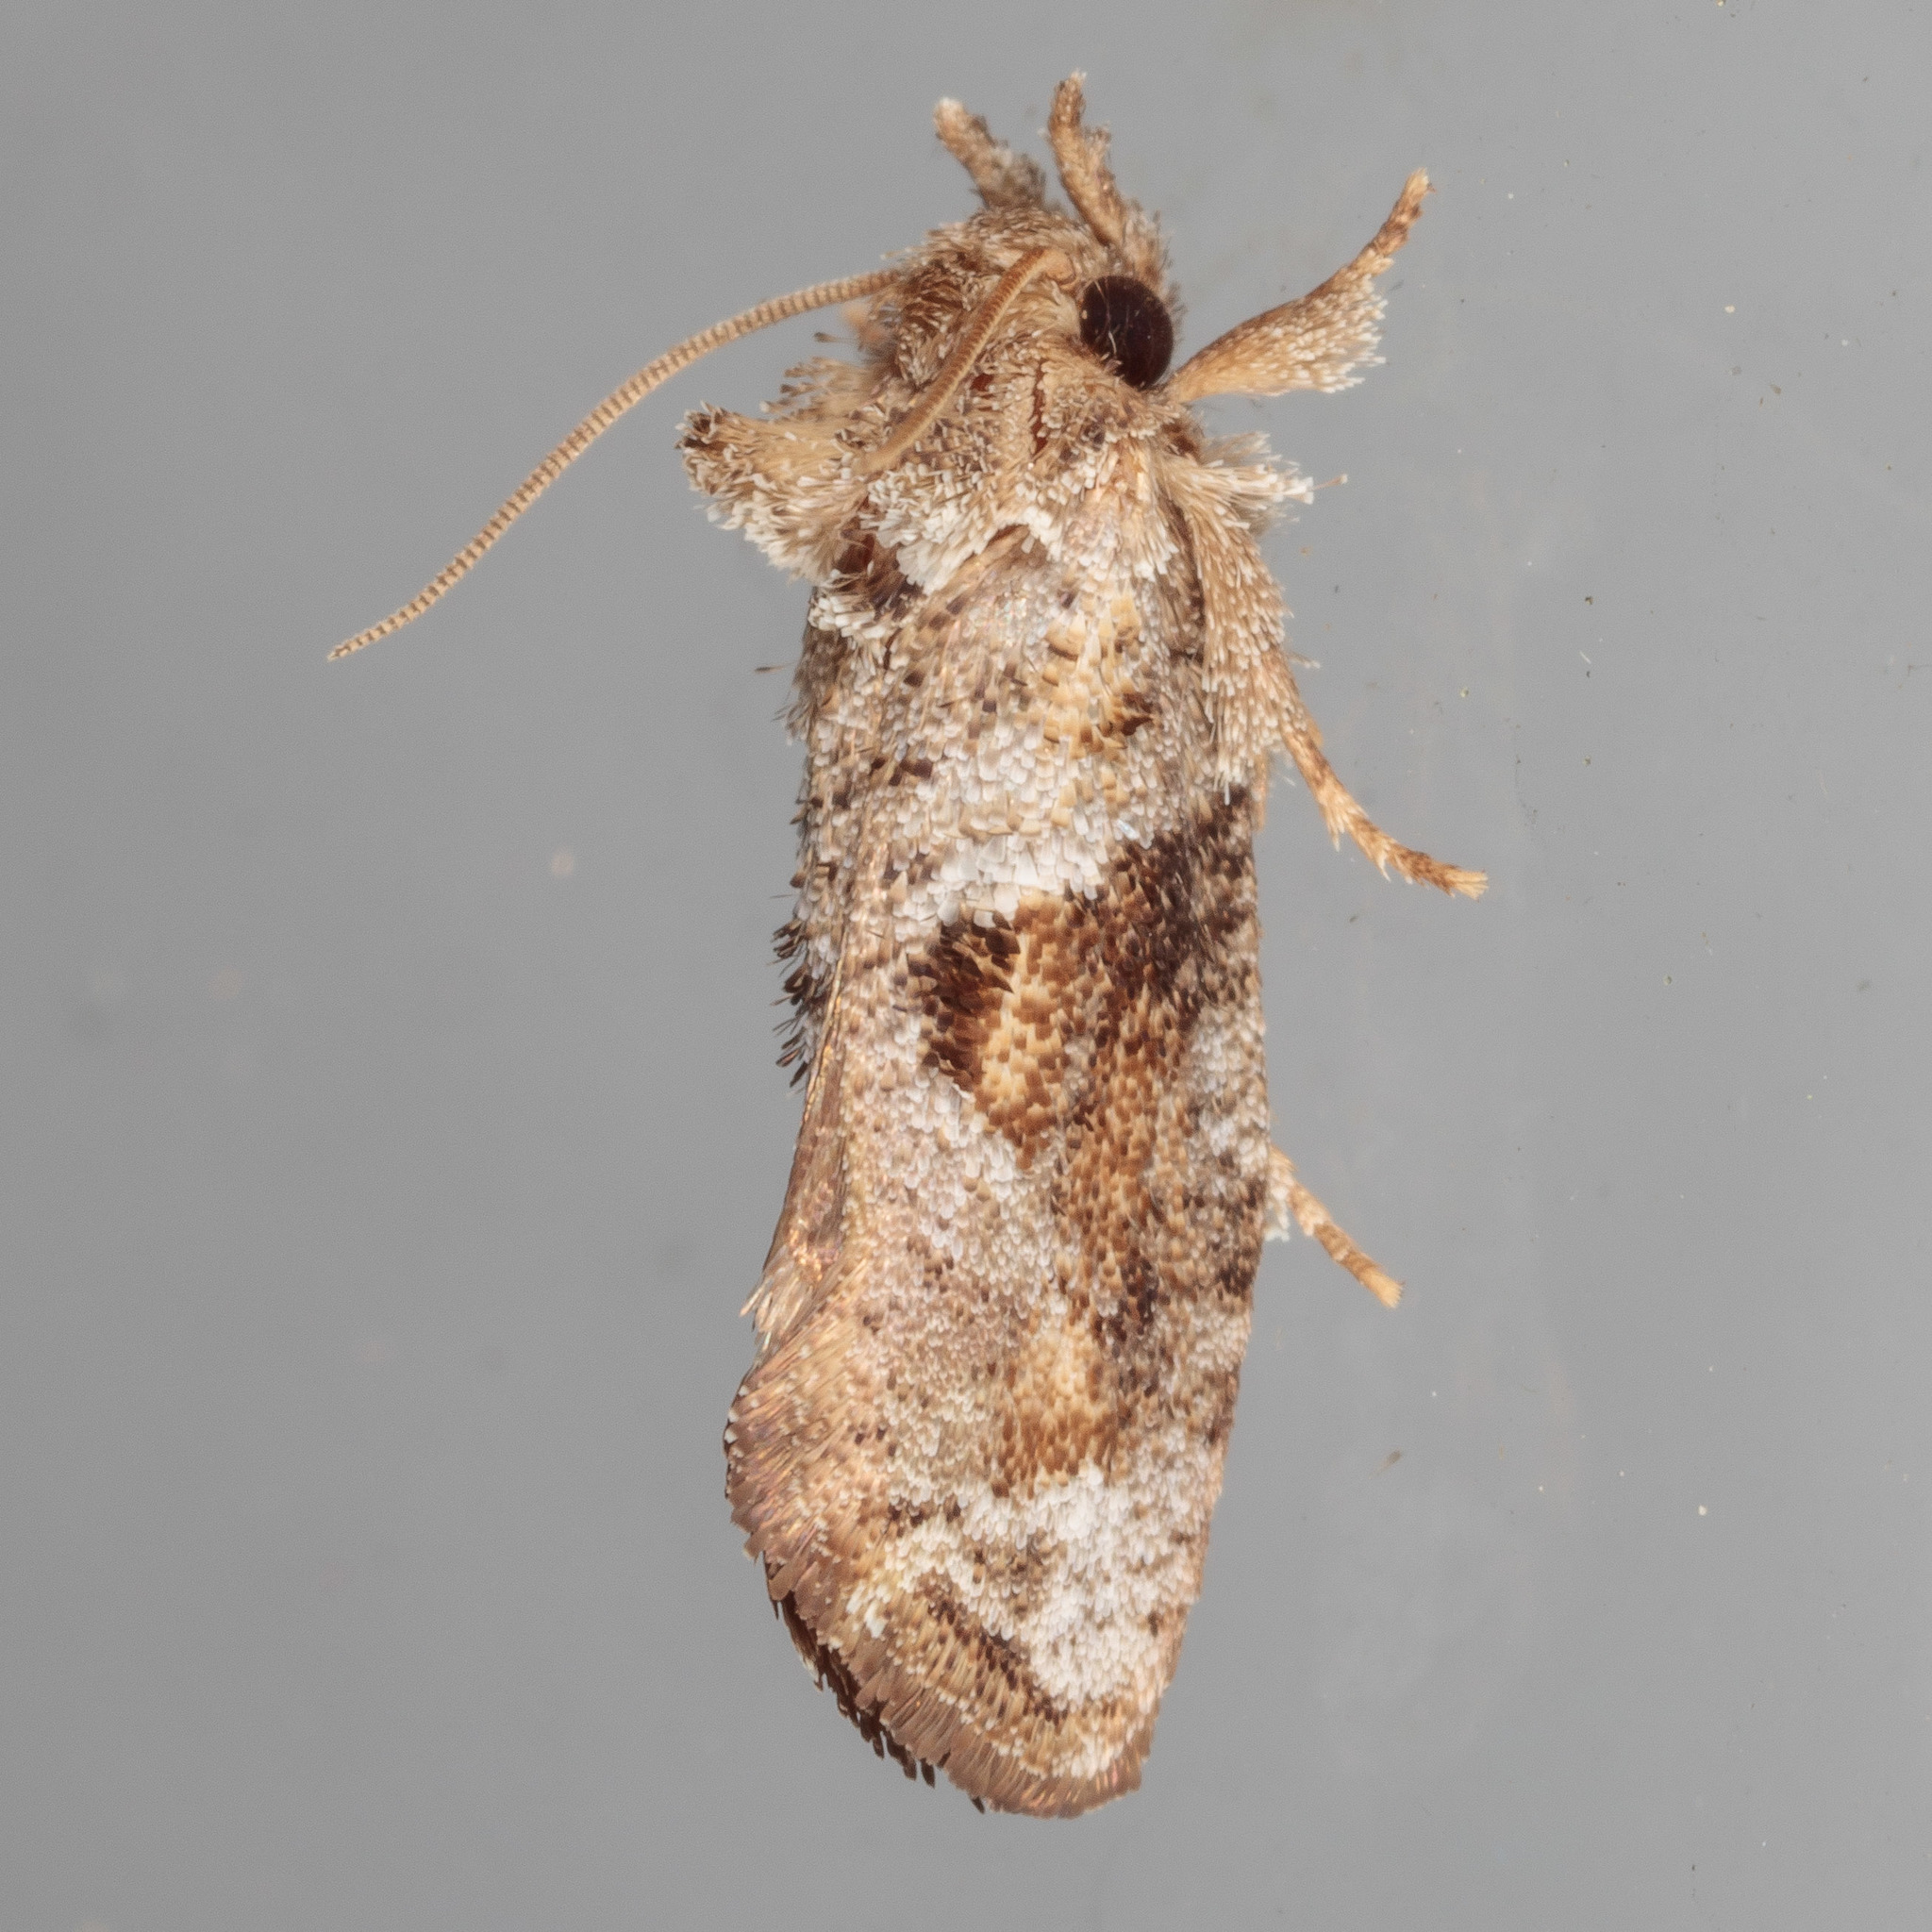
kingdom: Animalia
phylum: Arthropoda
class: Insecta
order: Lepidoptera
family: Tineidae
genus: Acrolophus
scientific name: Acrolophus piger
